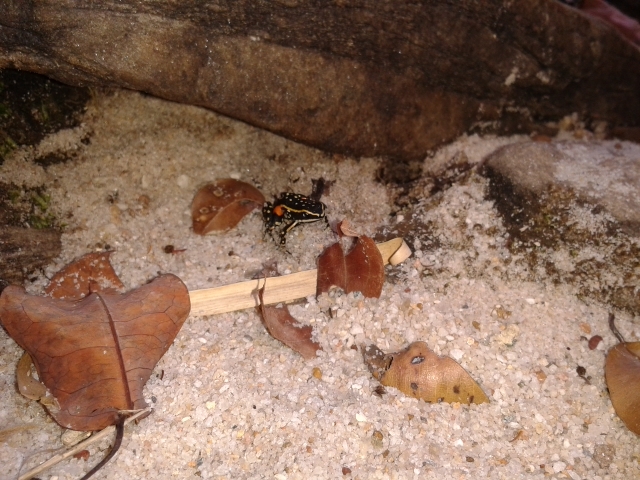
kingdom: Animalia
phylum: Chordata
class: Amphibia
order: Anura
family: Dendrobatidae
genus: Ameerega
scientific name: Ameerega flavopicta
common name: Lutz's poison frog
